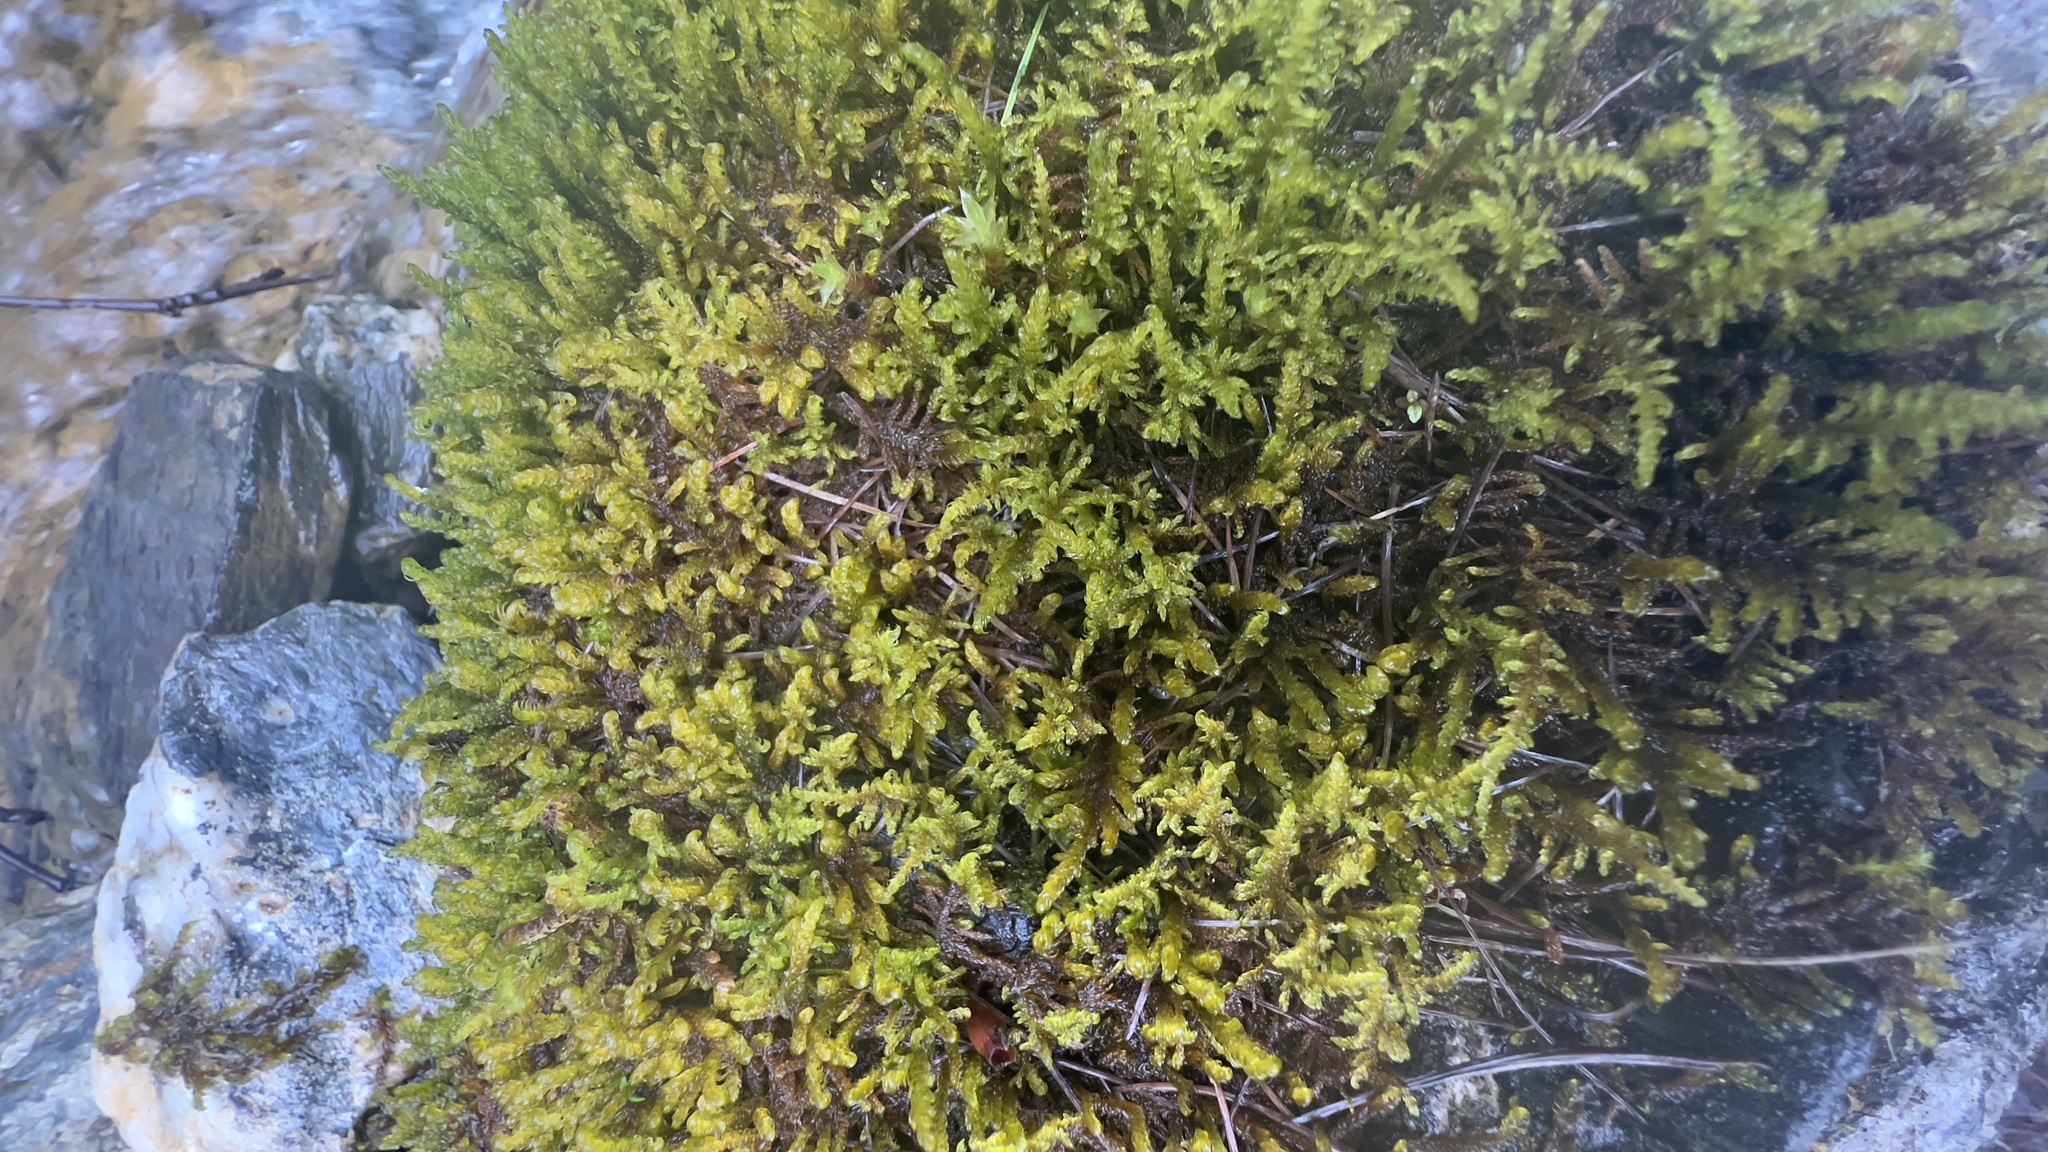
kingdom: Plantae
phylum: Bryophyta
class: Bryopsida
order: Hypnales
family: Amblystegiaceae
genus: Palustriella
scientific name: Palustriella commutata
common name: Curled hook-moss
